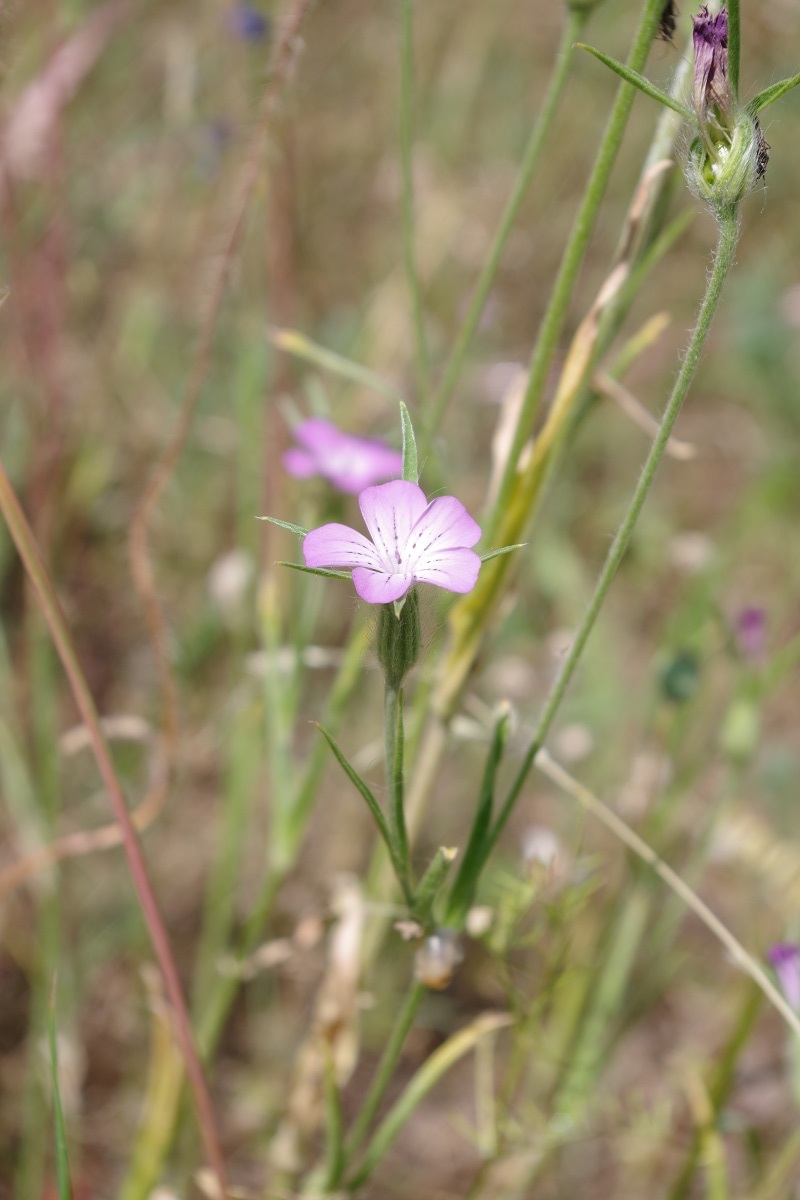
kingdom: Plantae
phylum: Tracheophyta
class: Magnoliopsida
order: Caryophyllales
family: Caryophyllaceae
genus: Agrostemma
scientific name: Agrostemma githago
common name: Common corncockle
